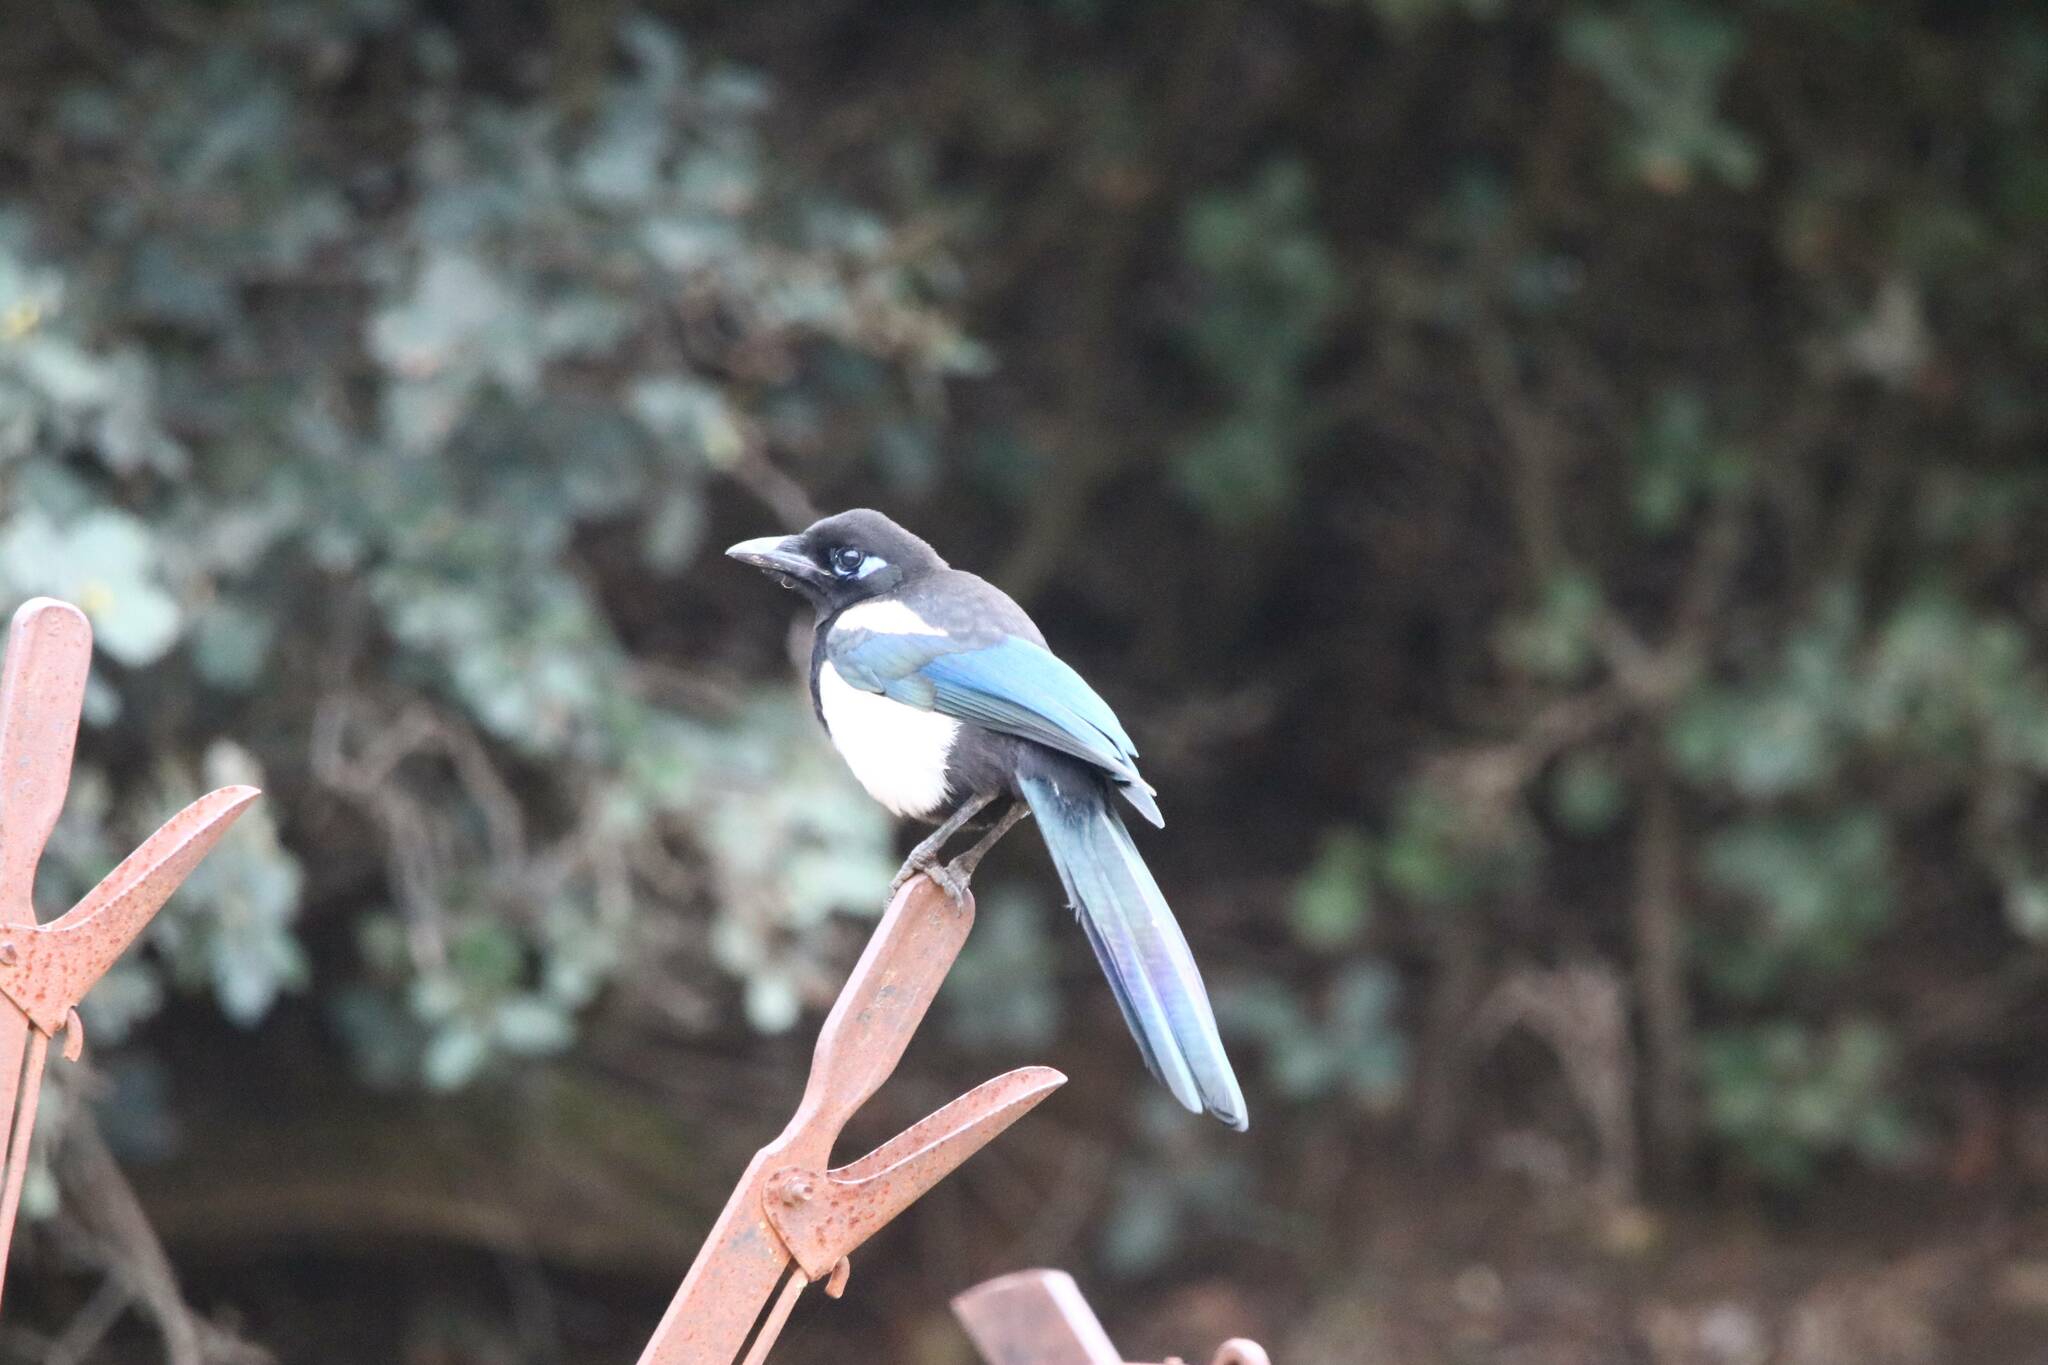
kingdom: Animalia
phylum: Chordata
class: Aves
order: Passeriformes
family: Corvidae
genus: Pica
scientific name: Pica mauritanica
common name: Maghreb magpie
